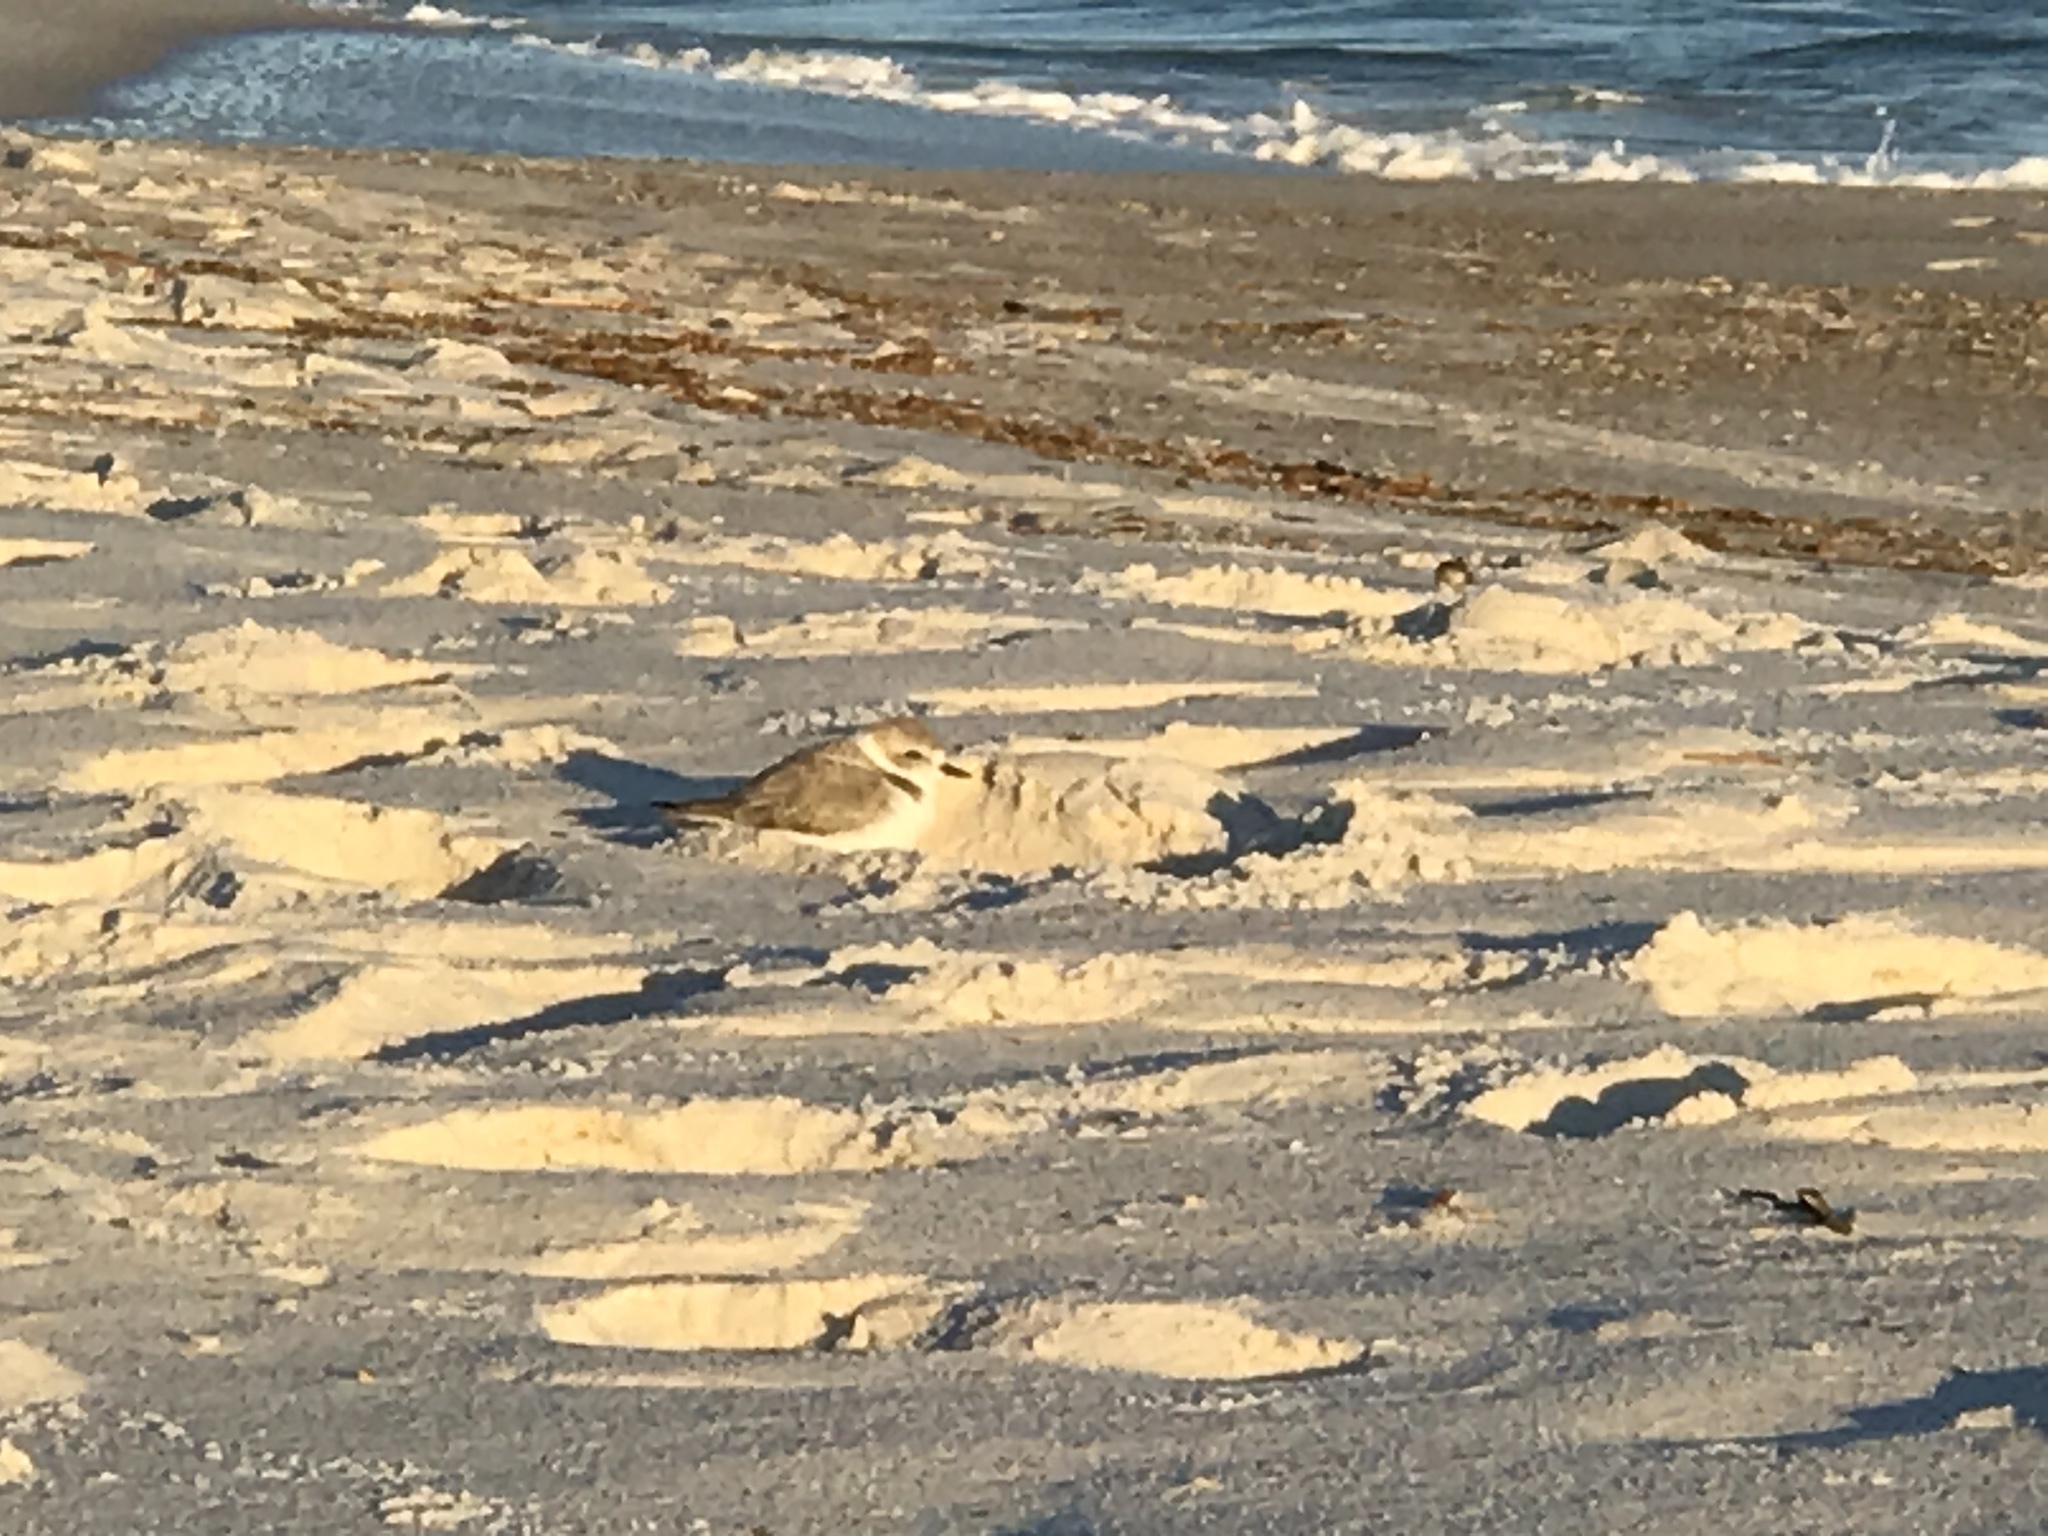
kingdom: Animalia
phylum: Chordata
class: Aves
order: Charadriiformes
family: Charadriidae
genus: Anarhynchus
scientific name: Anarhynchus
